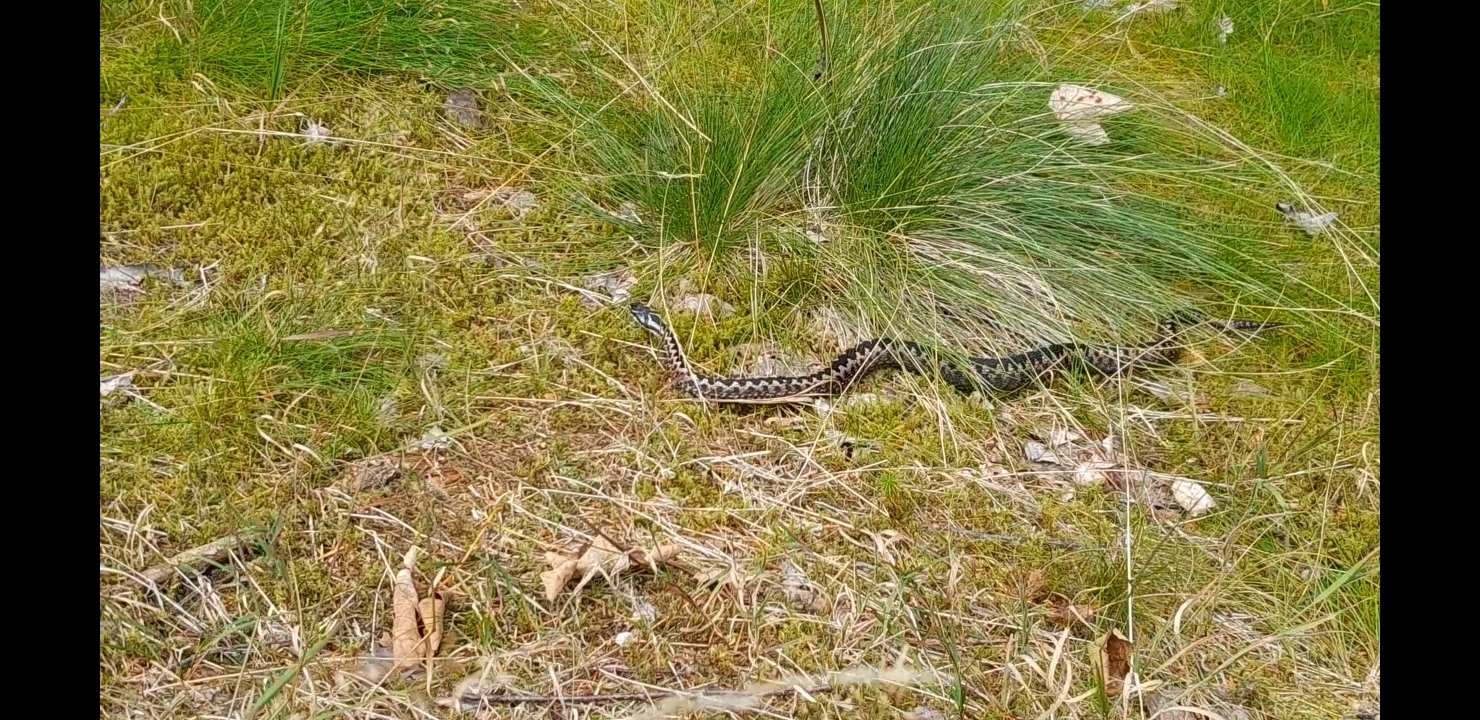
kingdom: Animalia
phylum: Chordata
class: Squamata
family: Viperidae
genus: Vipera
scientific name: Vipera berus
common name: Adder
